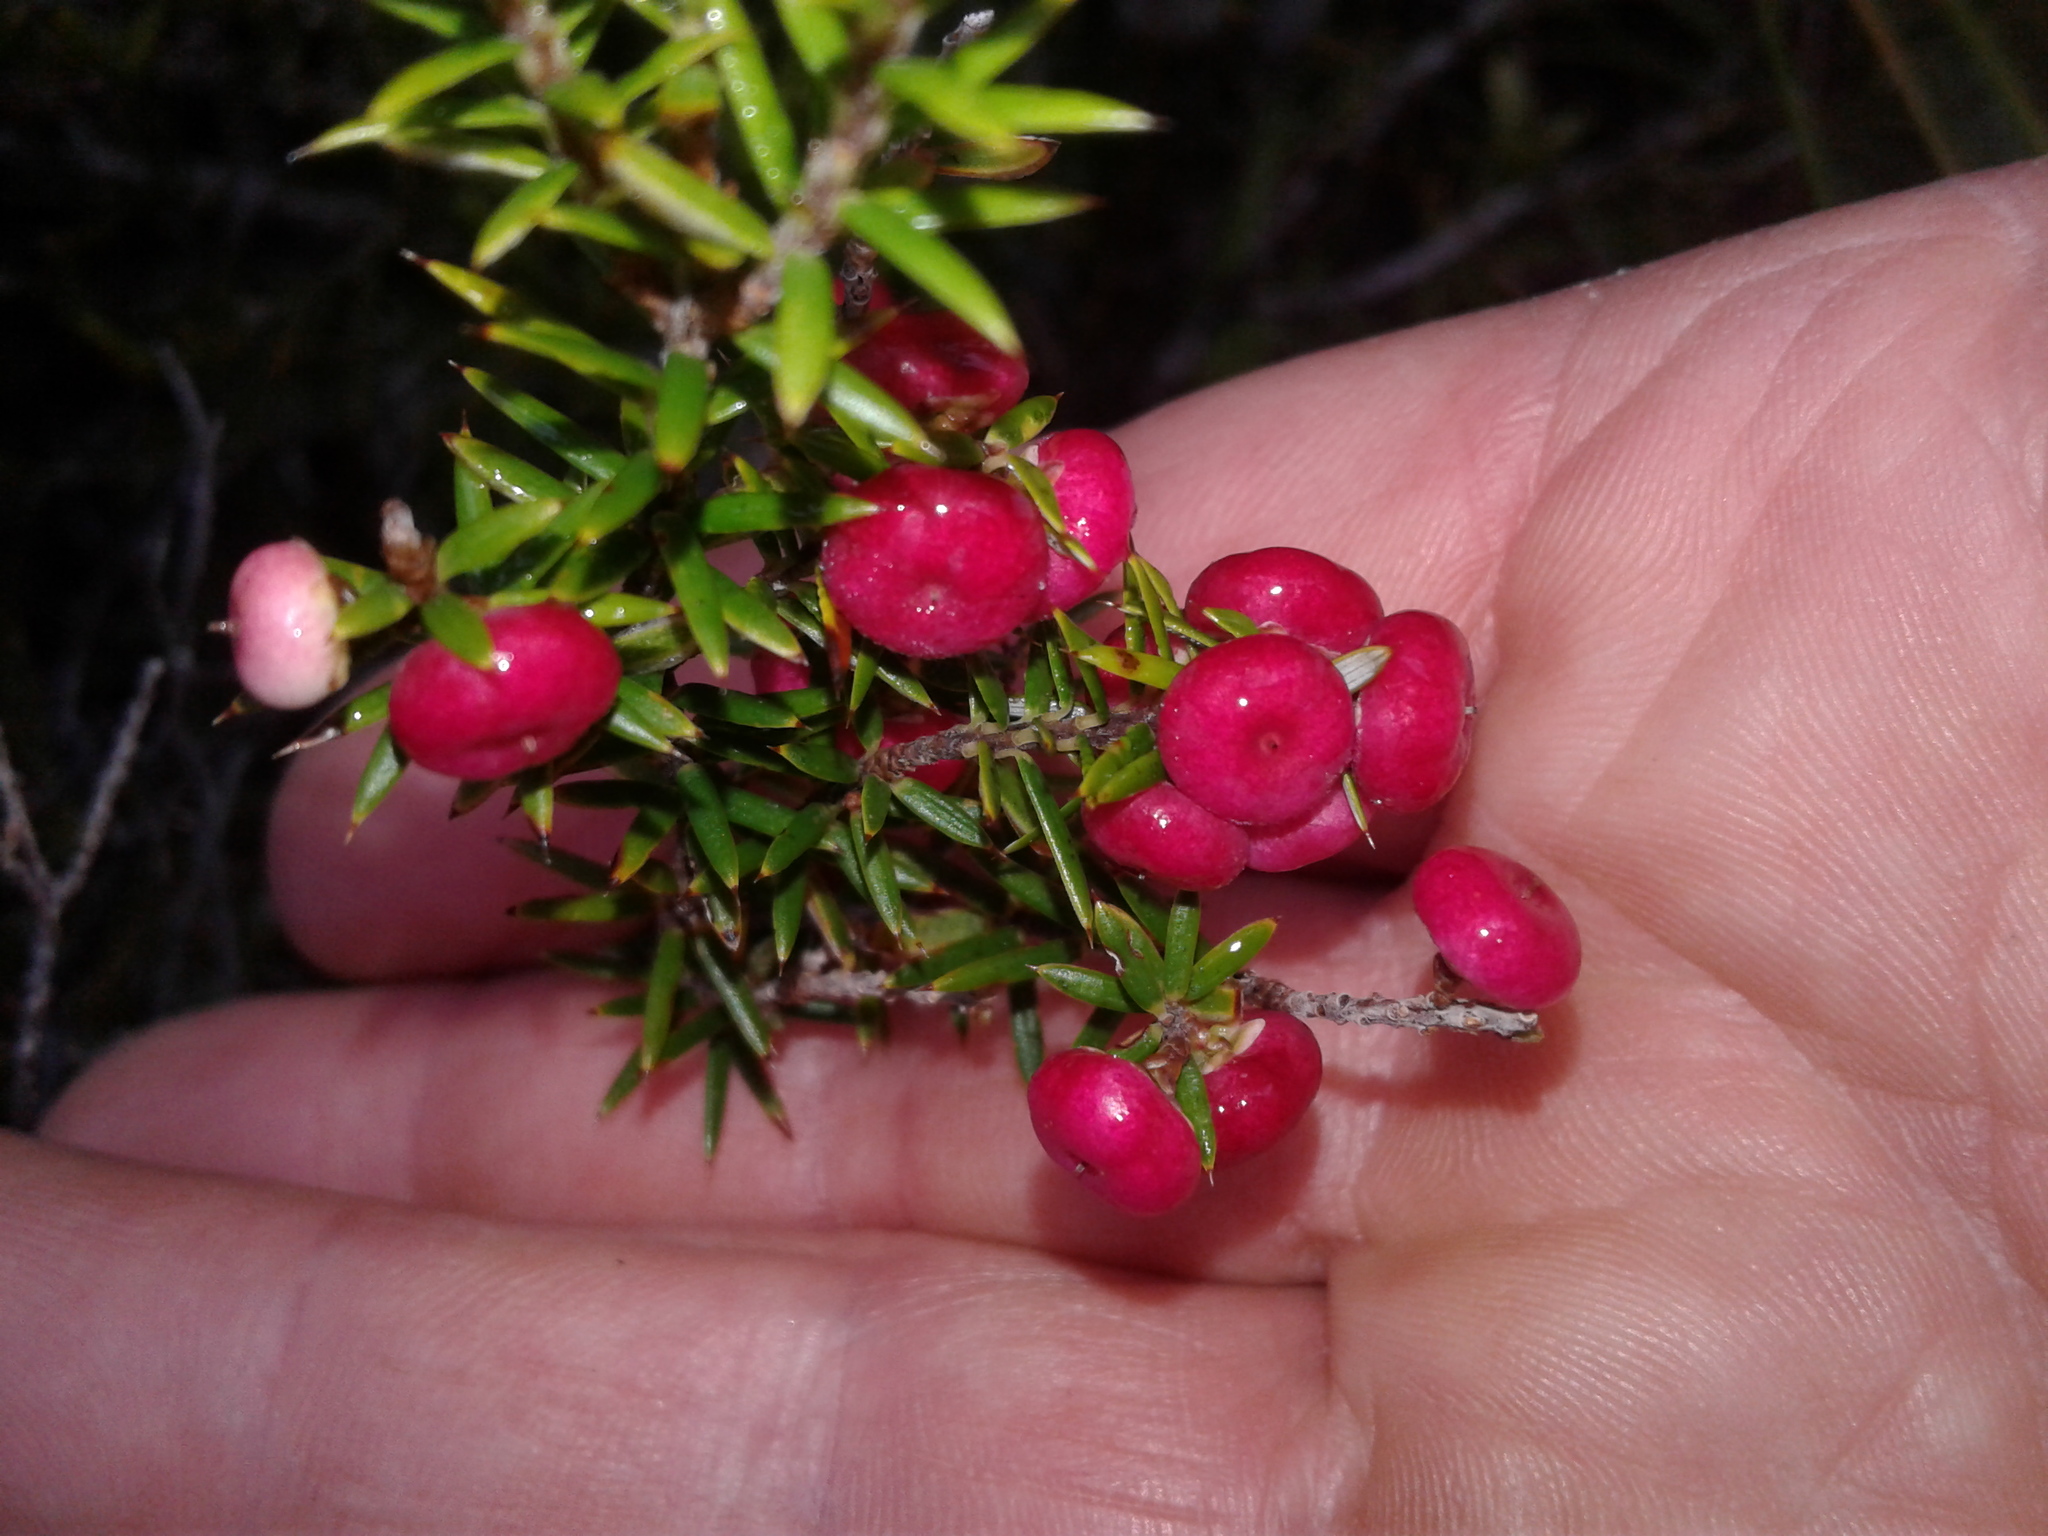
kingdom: Plantae
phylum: Tracheophyta
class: Magnoliopsida
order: Ericales
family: Ericaceae
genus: Leptecophylla
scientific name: Leptecophylla juniperina
